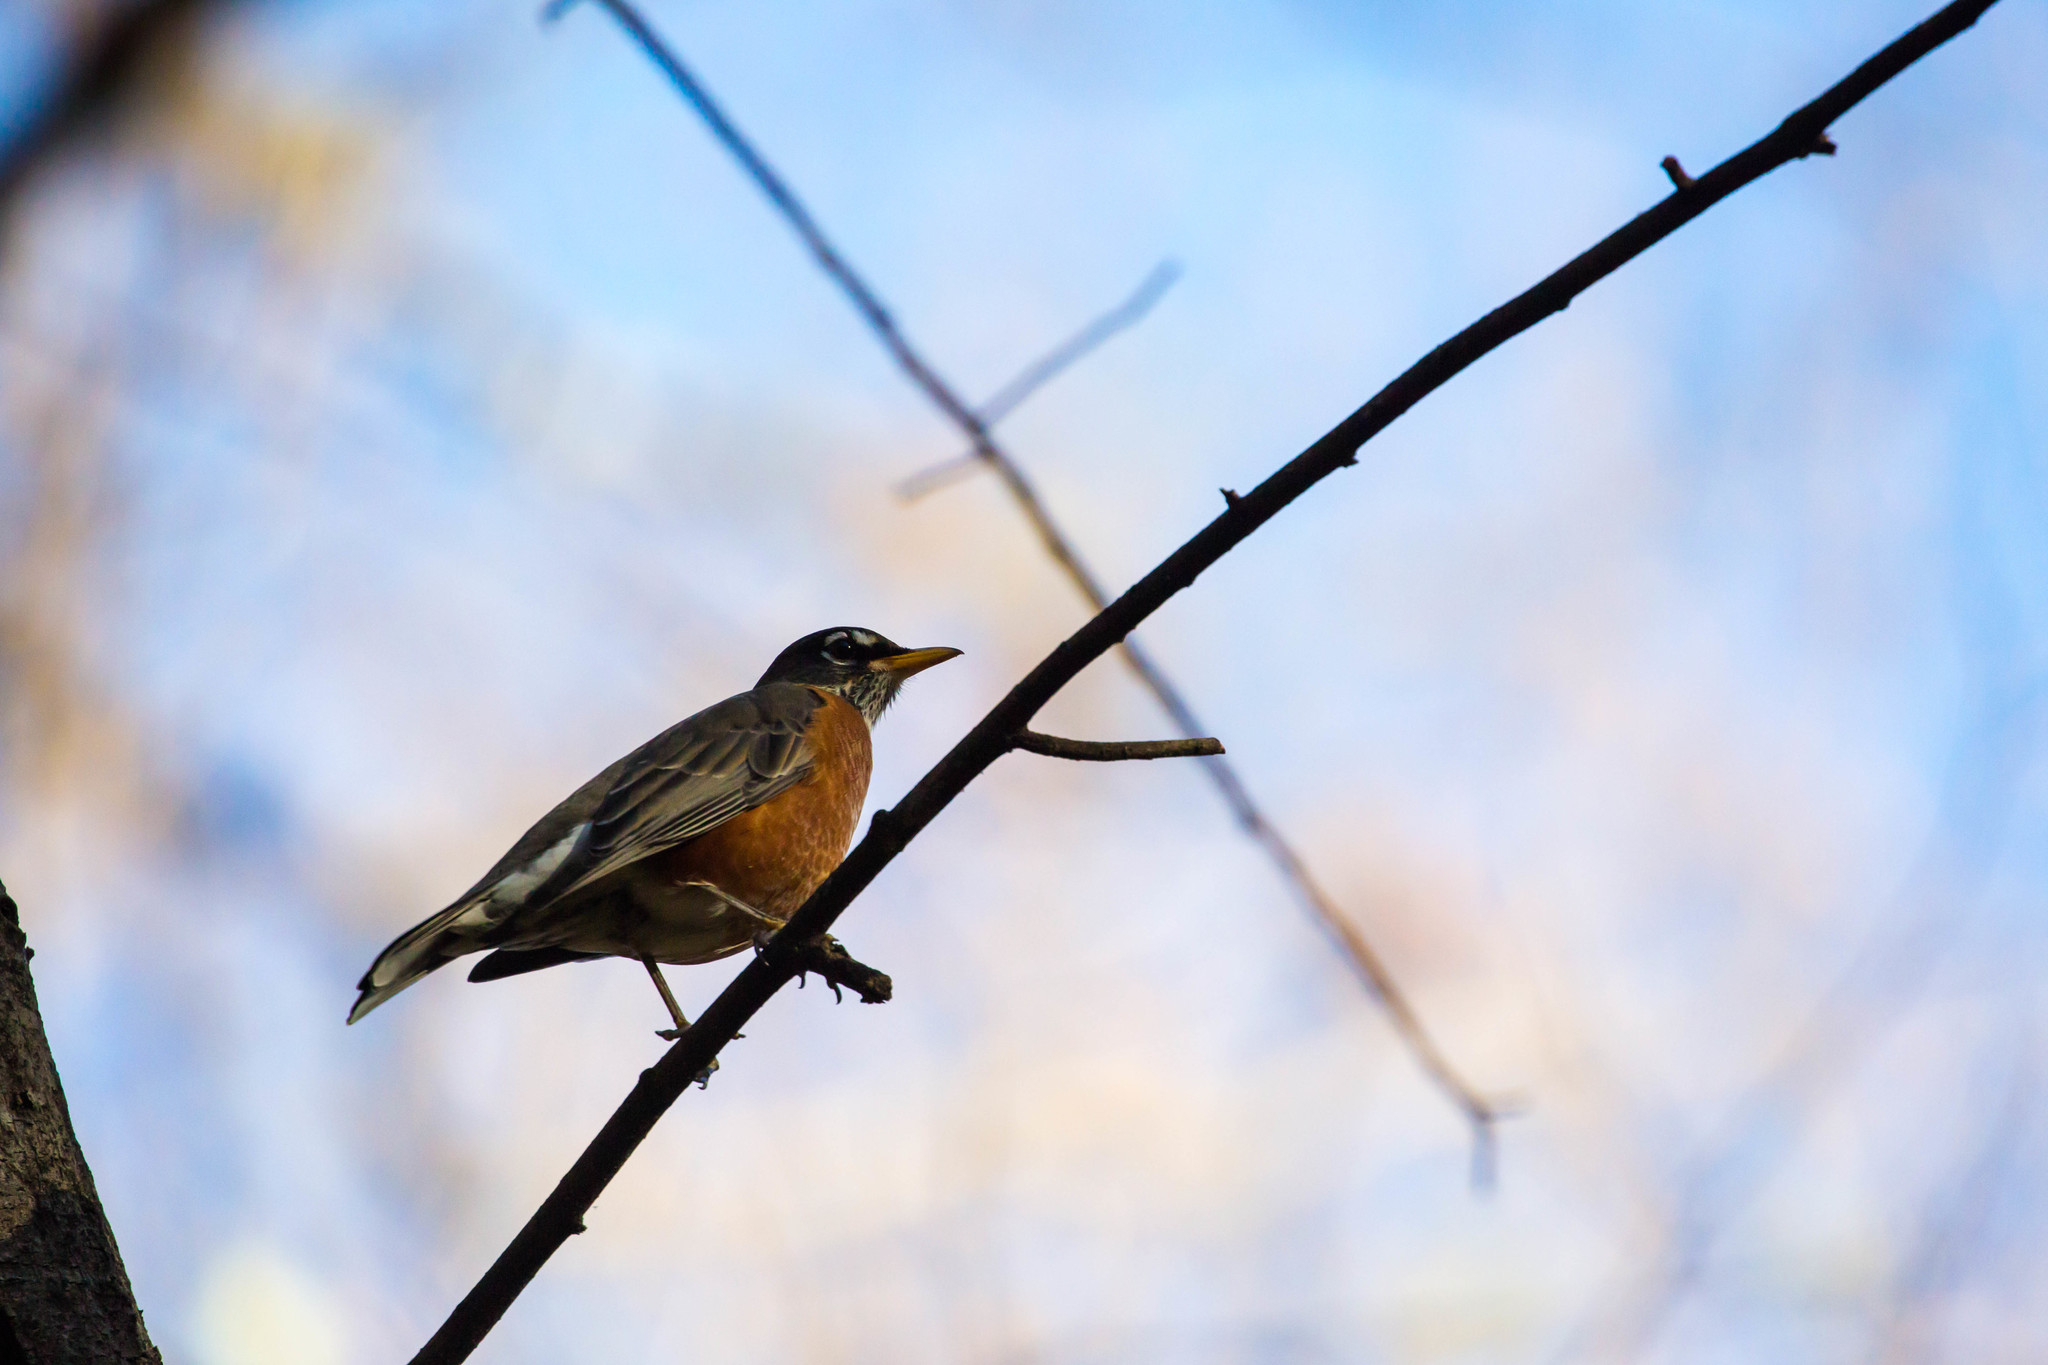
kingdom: Animalia
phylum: Chordata
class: Aves
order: Passeriformes
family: Turdidae
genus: Turdus
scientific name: Turdus migratorius
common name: American robin
